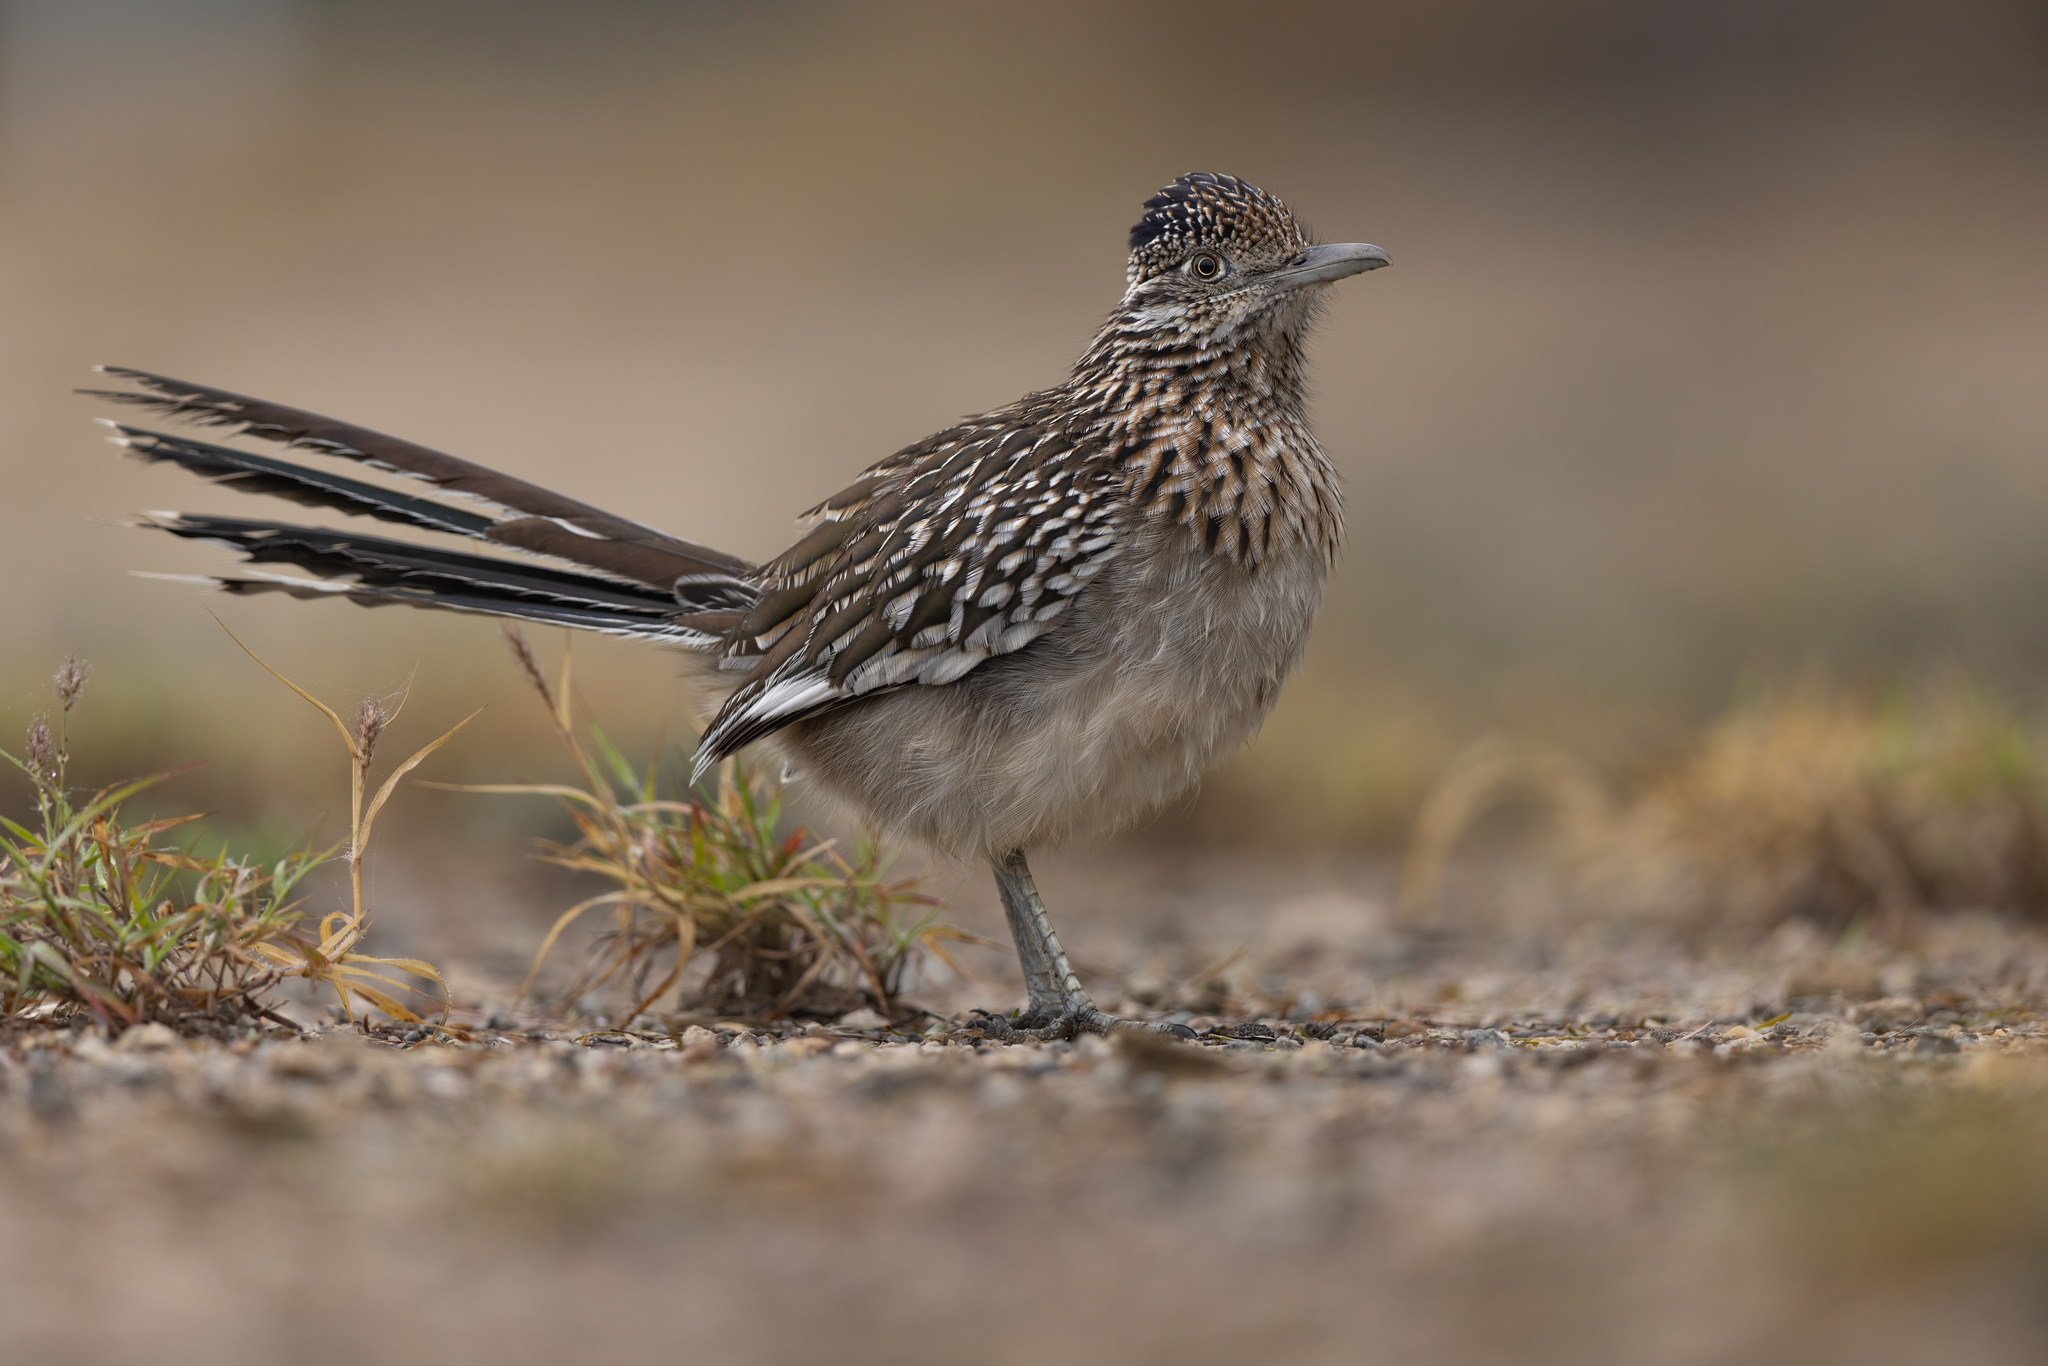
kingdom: Animalia
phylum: Chordata
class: Aves
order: Cuculiformes
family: Cuculidae
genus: Geococcyx
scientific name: Geococcyx californianus
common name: Greater roadrunner
